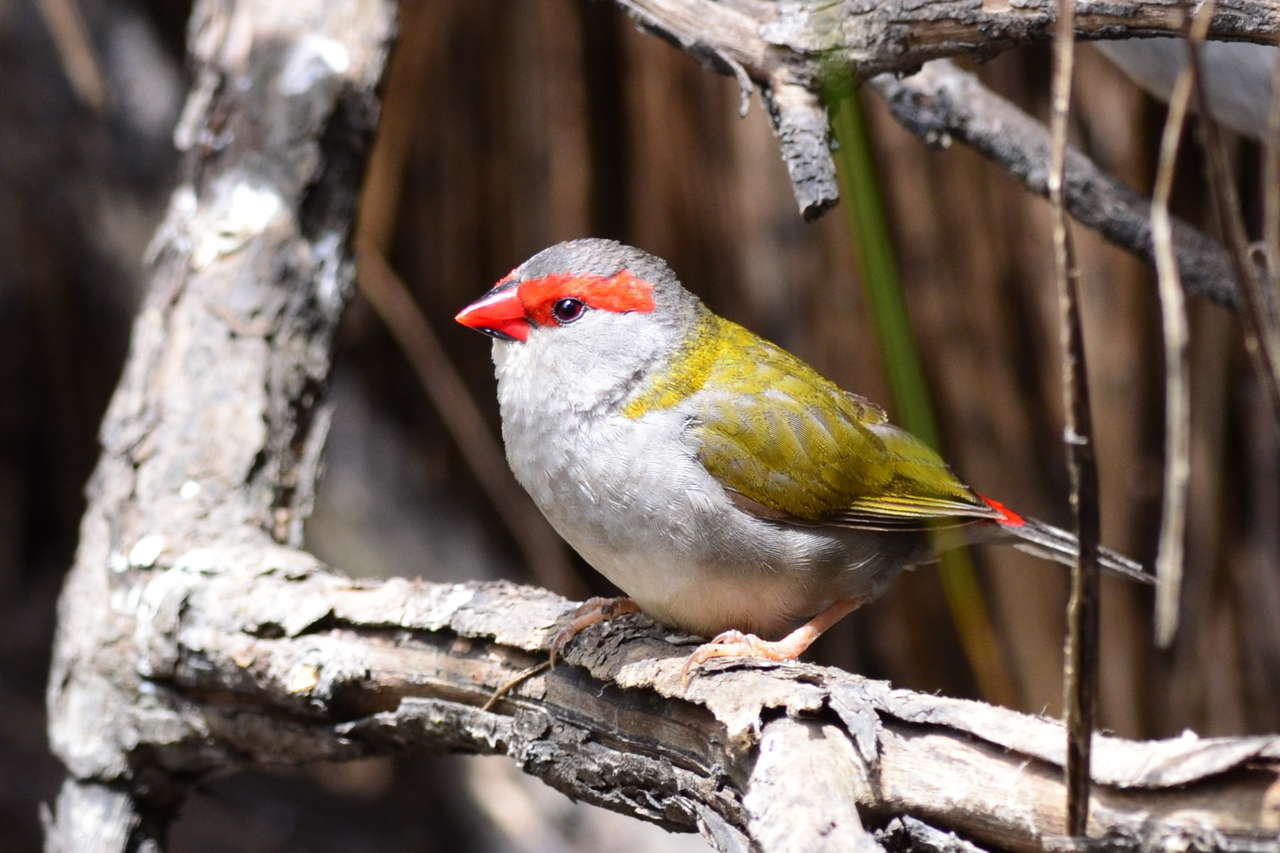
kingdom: Animalia
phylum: Chordata
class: Aves
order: Passeriformes
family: Estrildidae
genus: Neochmia
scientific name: Neochmia temporalis
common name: Red-browed finch
